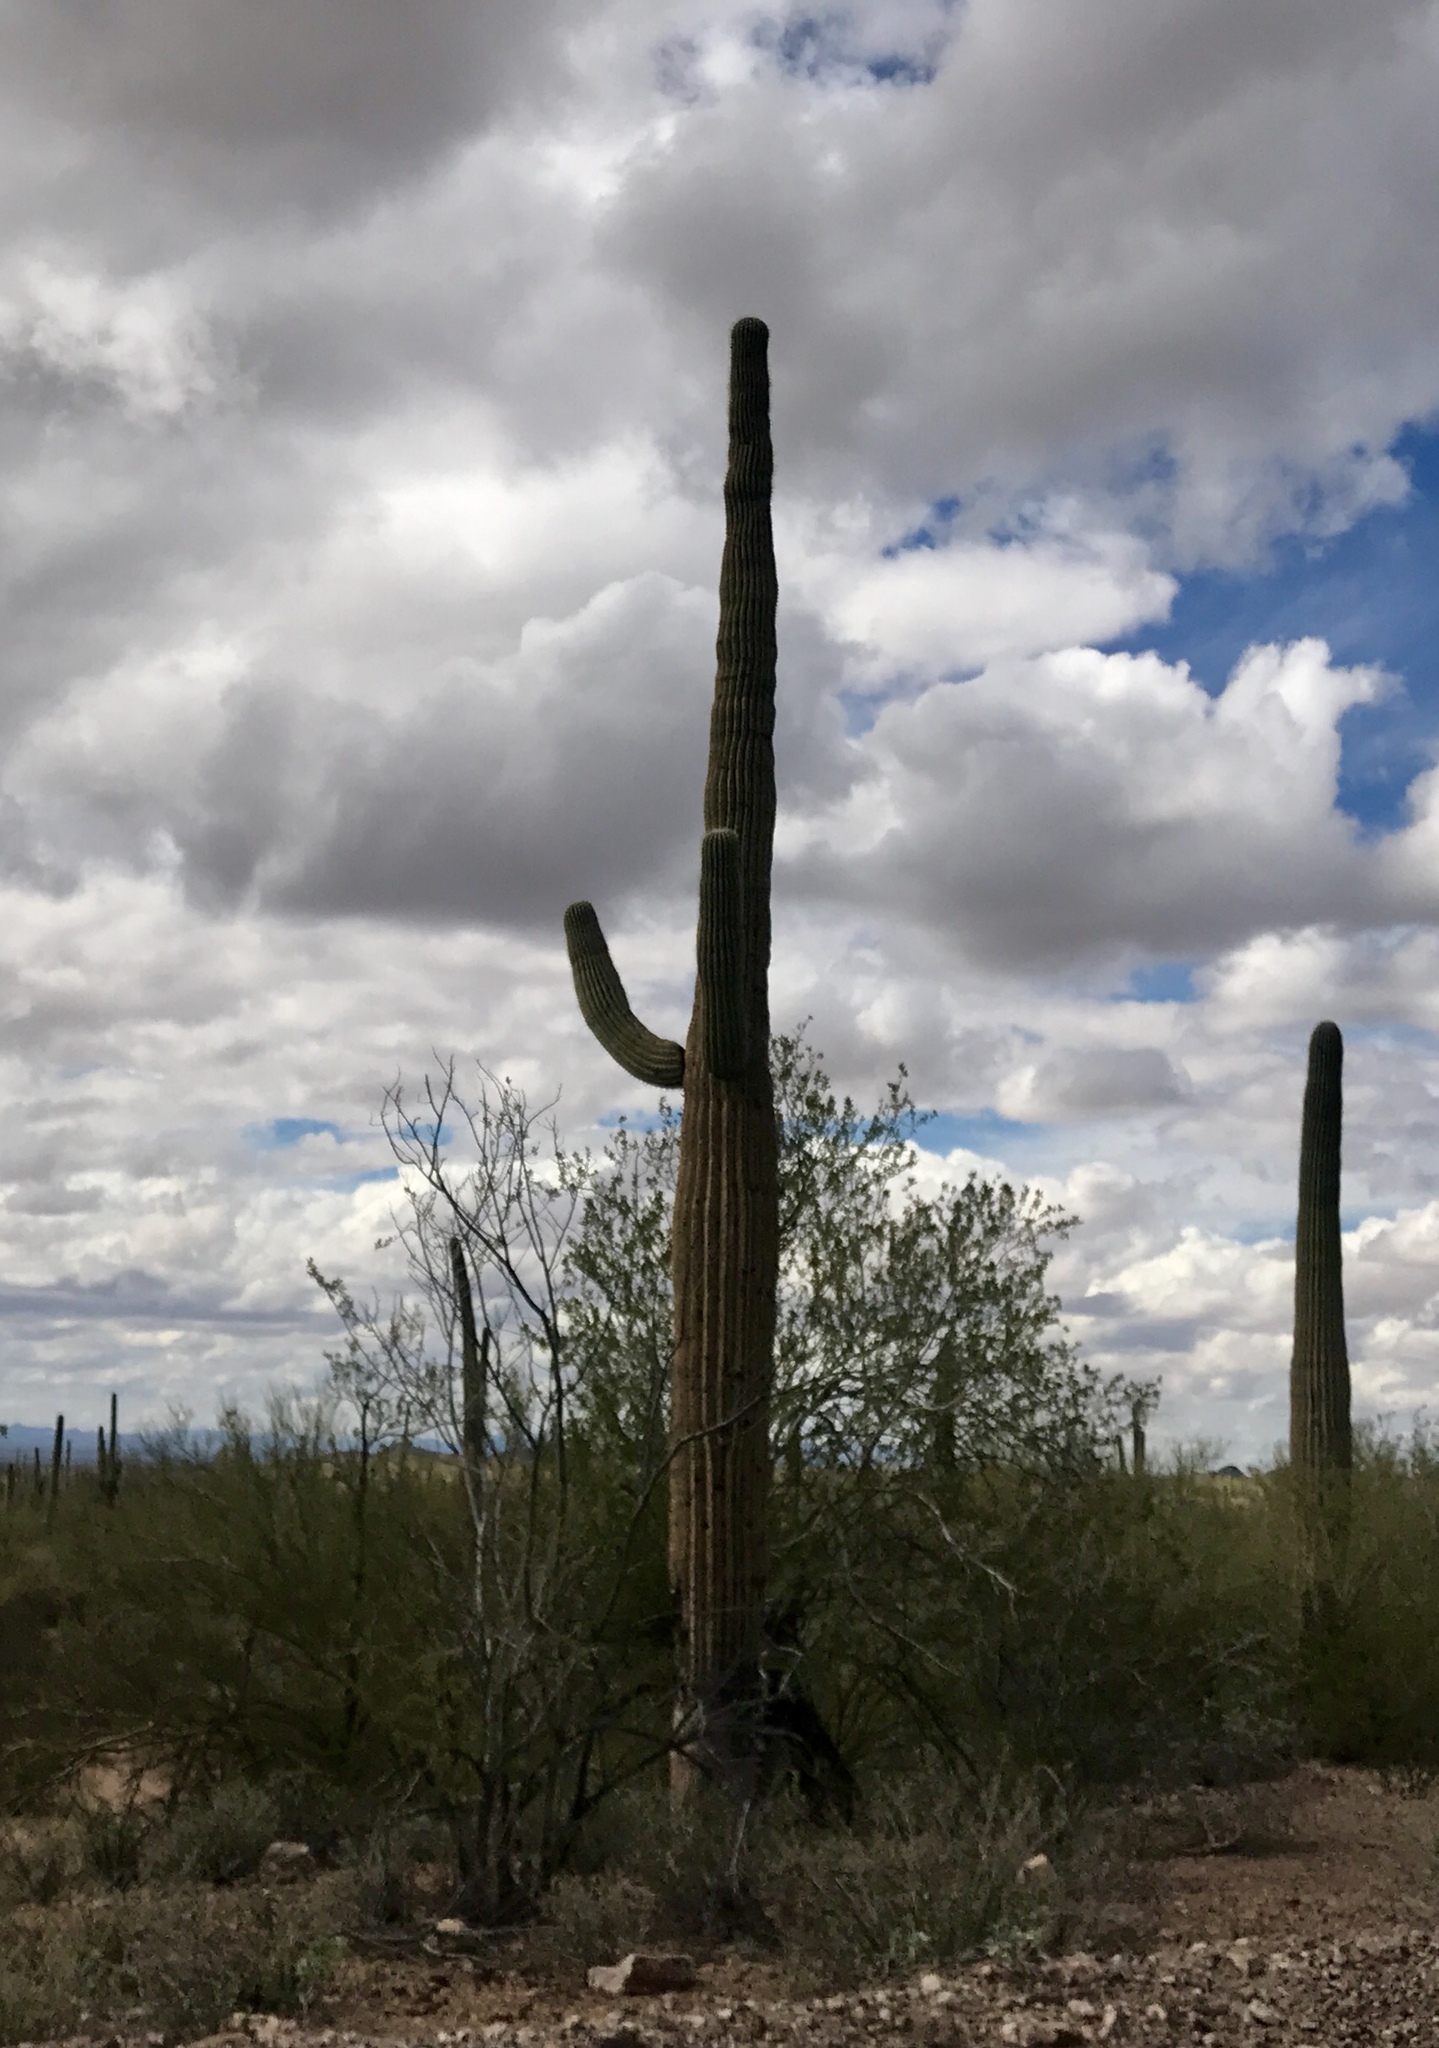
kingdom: Plantae
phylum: Tracheophyta
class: Magnoliopsida
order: Caryophyllales
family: Cactaceae
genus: Carnegiea
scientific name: Carnegiea gigantea
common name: Saguaro
